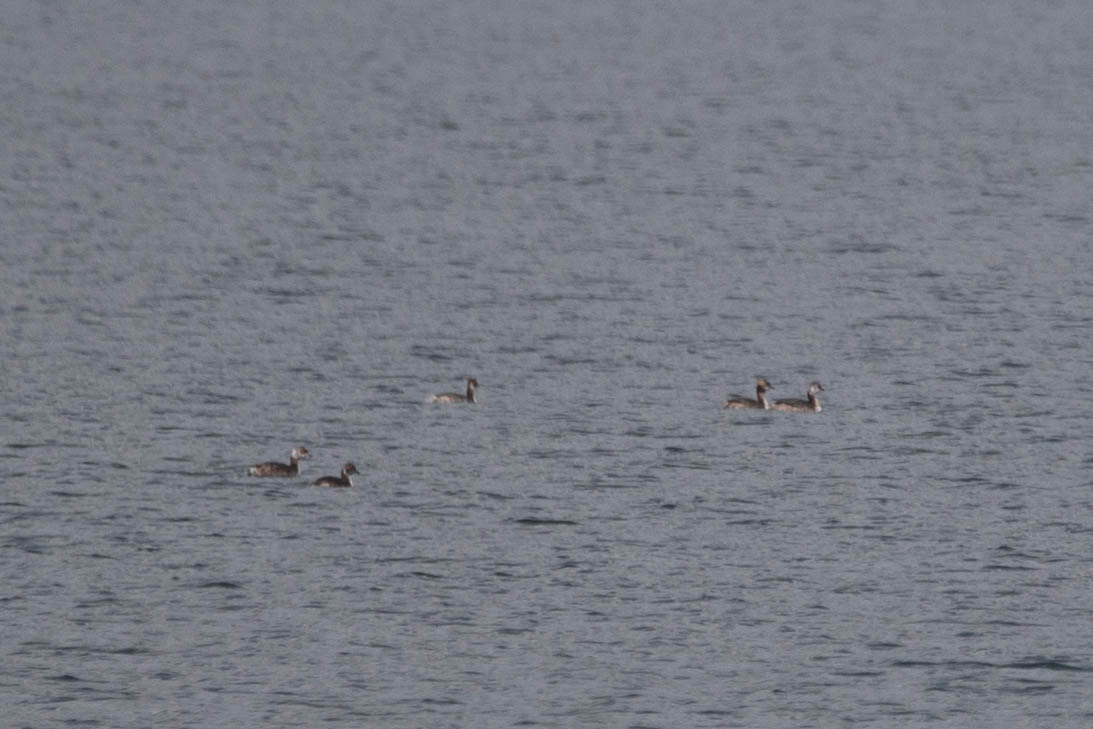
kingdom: Animalia
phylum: Chordata
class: Aves
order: Podicipediformes
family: Podicipedidae
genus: Podiceps
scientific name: Podiceps auritus
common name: Horned grebe
